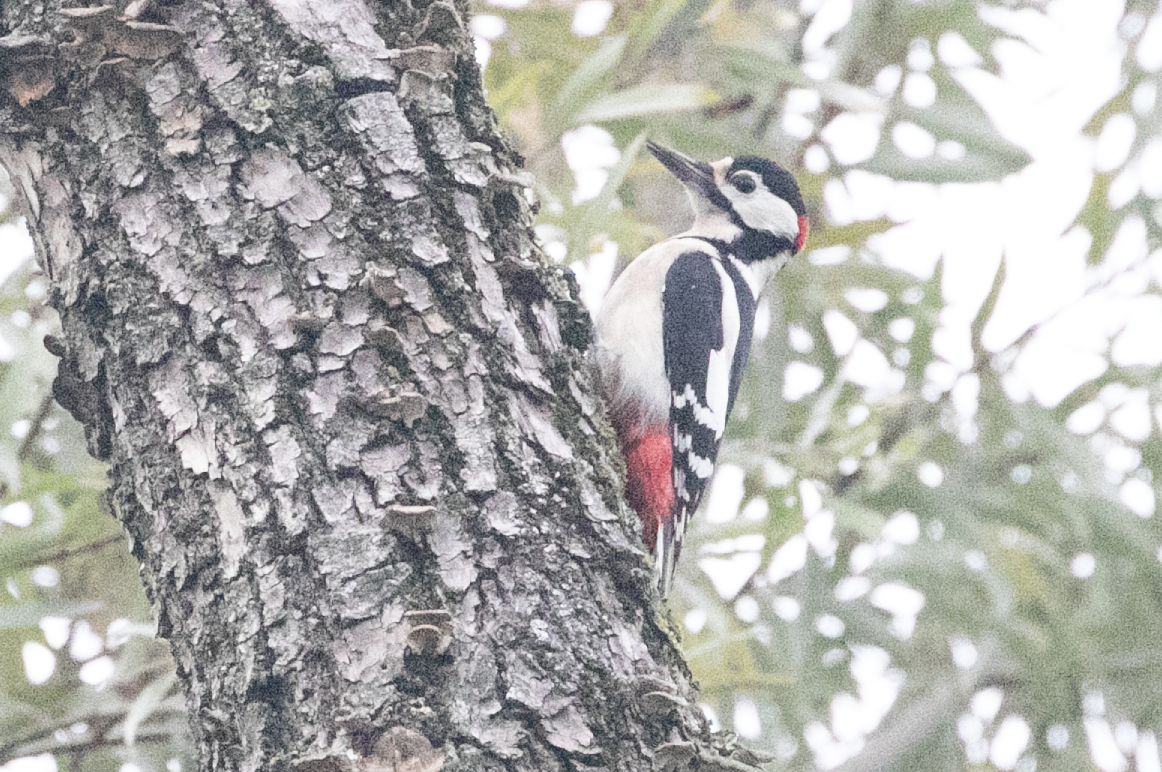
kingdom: Animalia
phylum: Chordata
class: Aves
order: Piciformes
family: Picidae
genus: Dendrocopos
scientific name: Dendrocopos major
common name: Great spotted woodpecker
